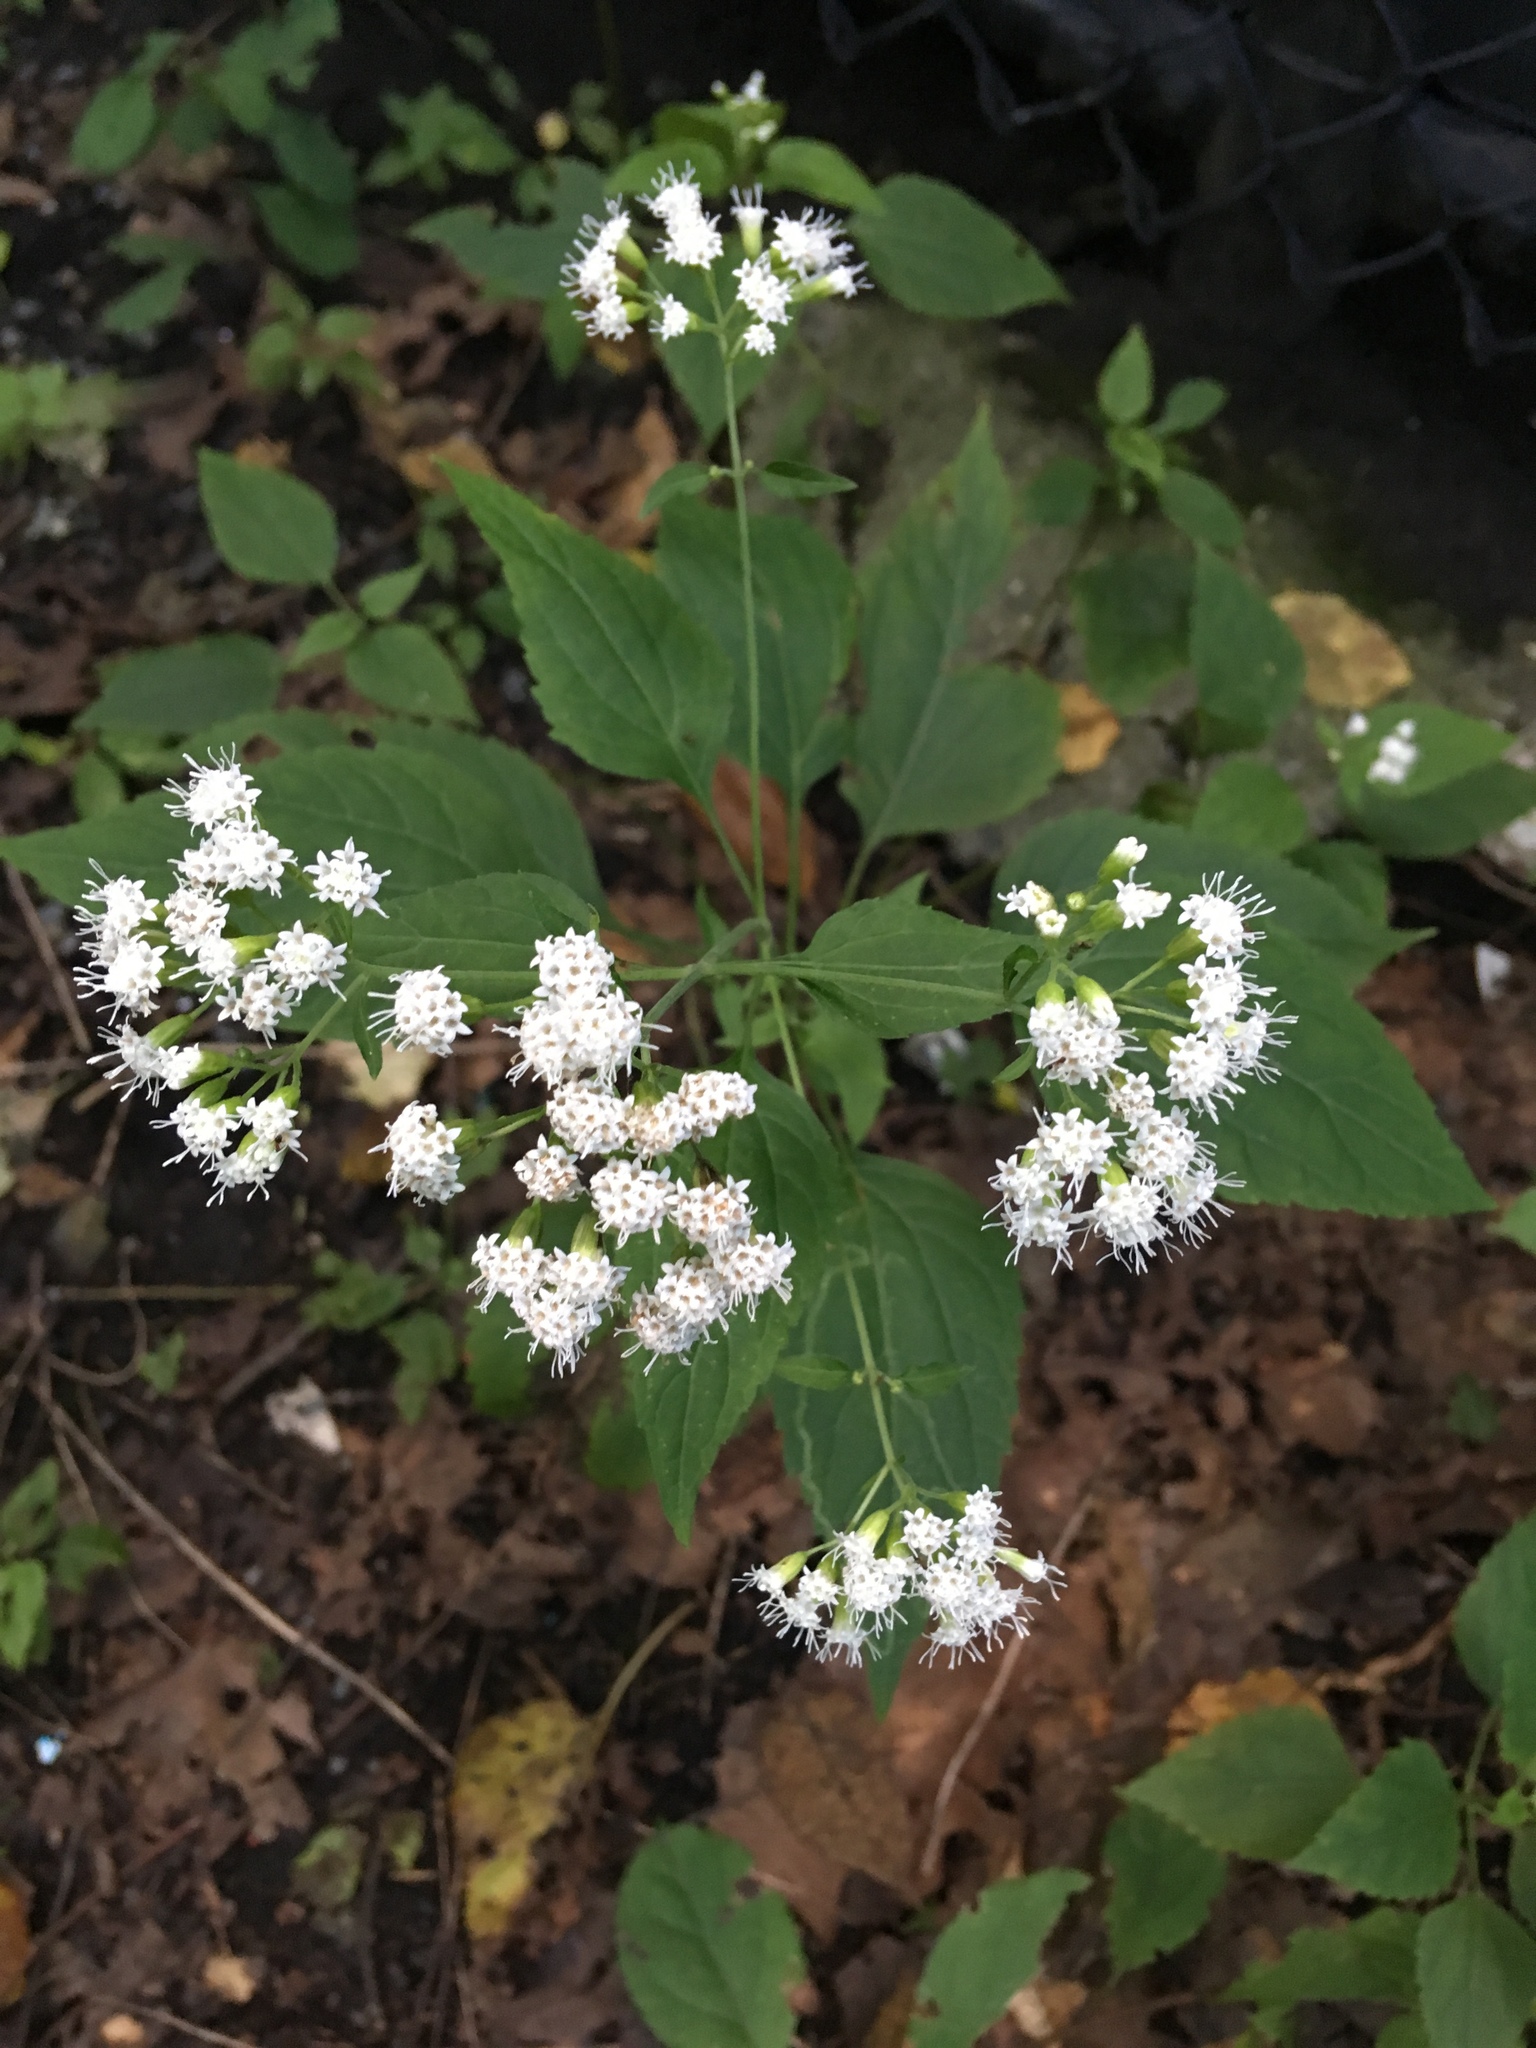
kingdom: Plantae
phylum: Tracheophyta
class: Magnoliopsida
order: Asterales
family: Asteraceae
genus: Ageratina
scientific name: Ageratina altissima
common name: White snakeroot
